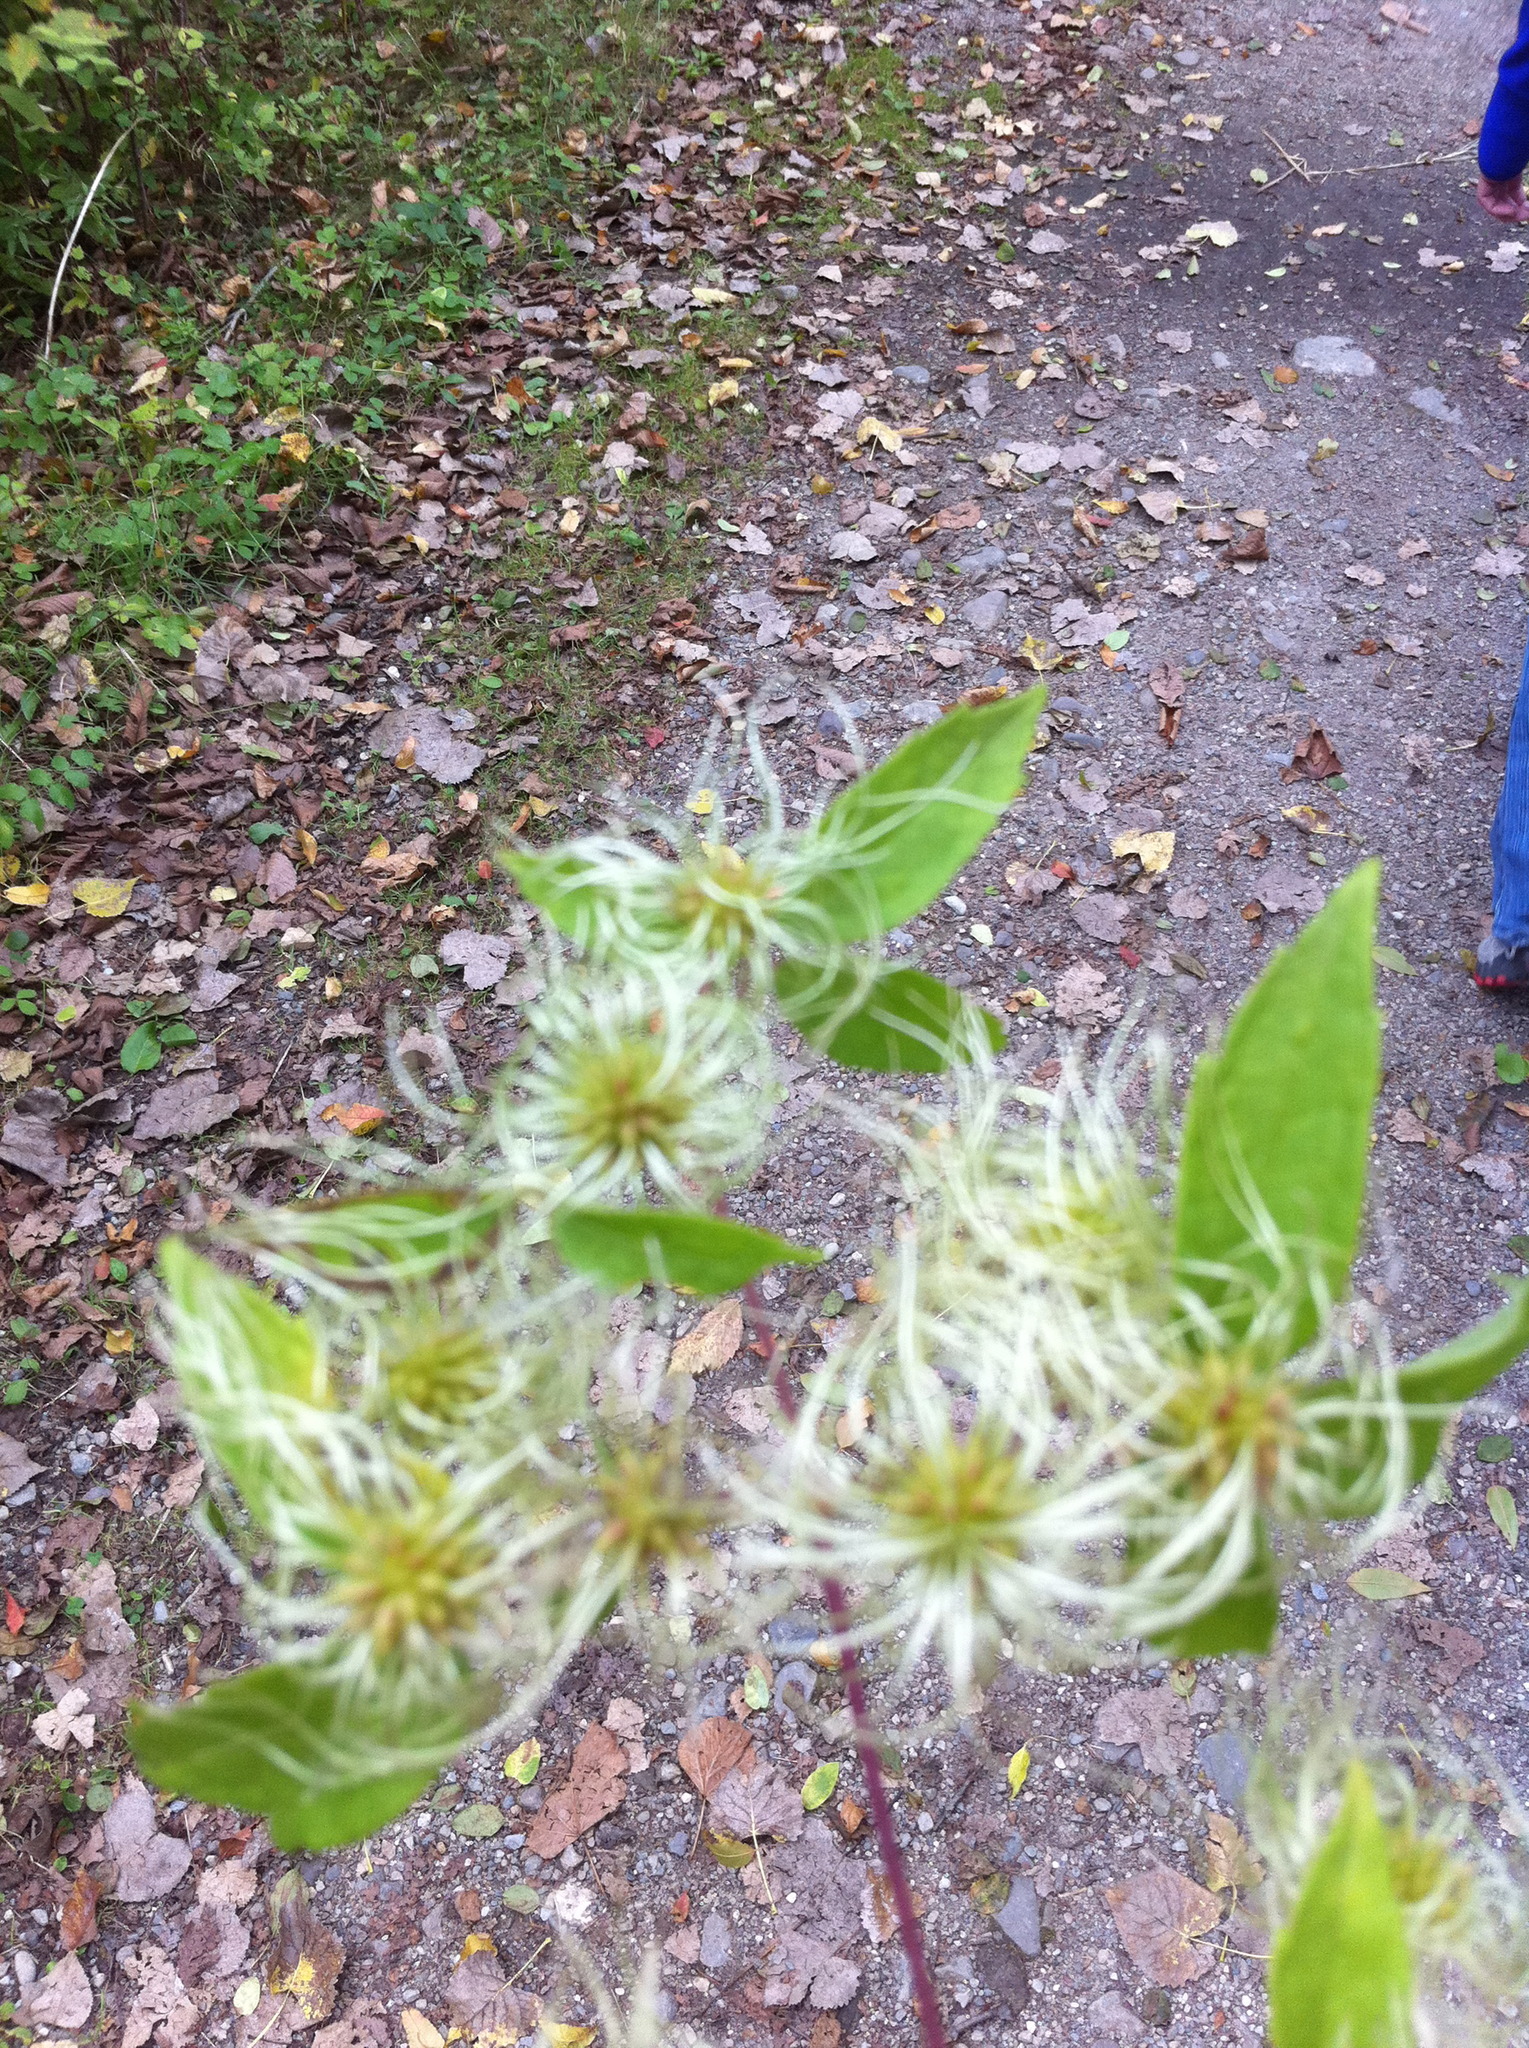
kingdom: Plantae
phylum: Tracheophyta
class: Magnoliopsida
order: Ranunculales
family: Ranunculaceae
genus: Clematis
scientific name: Clematis virginiana
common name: Virgin's-bower
